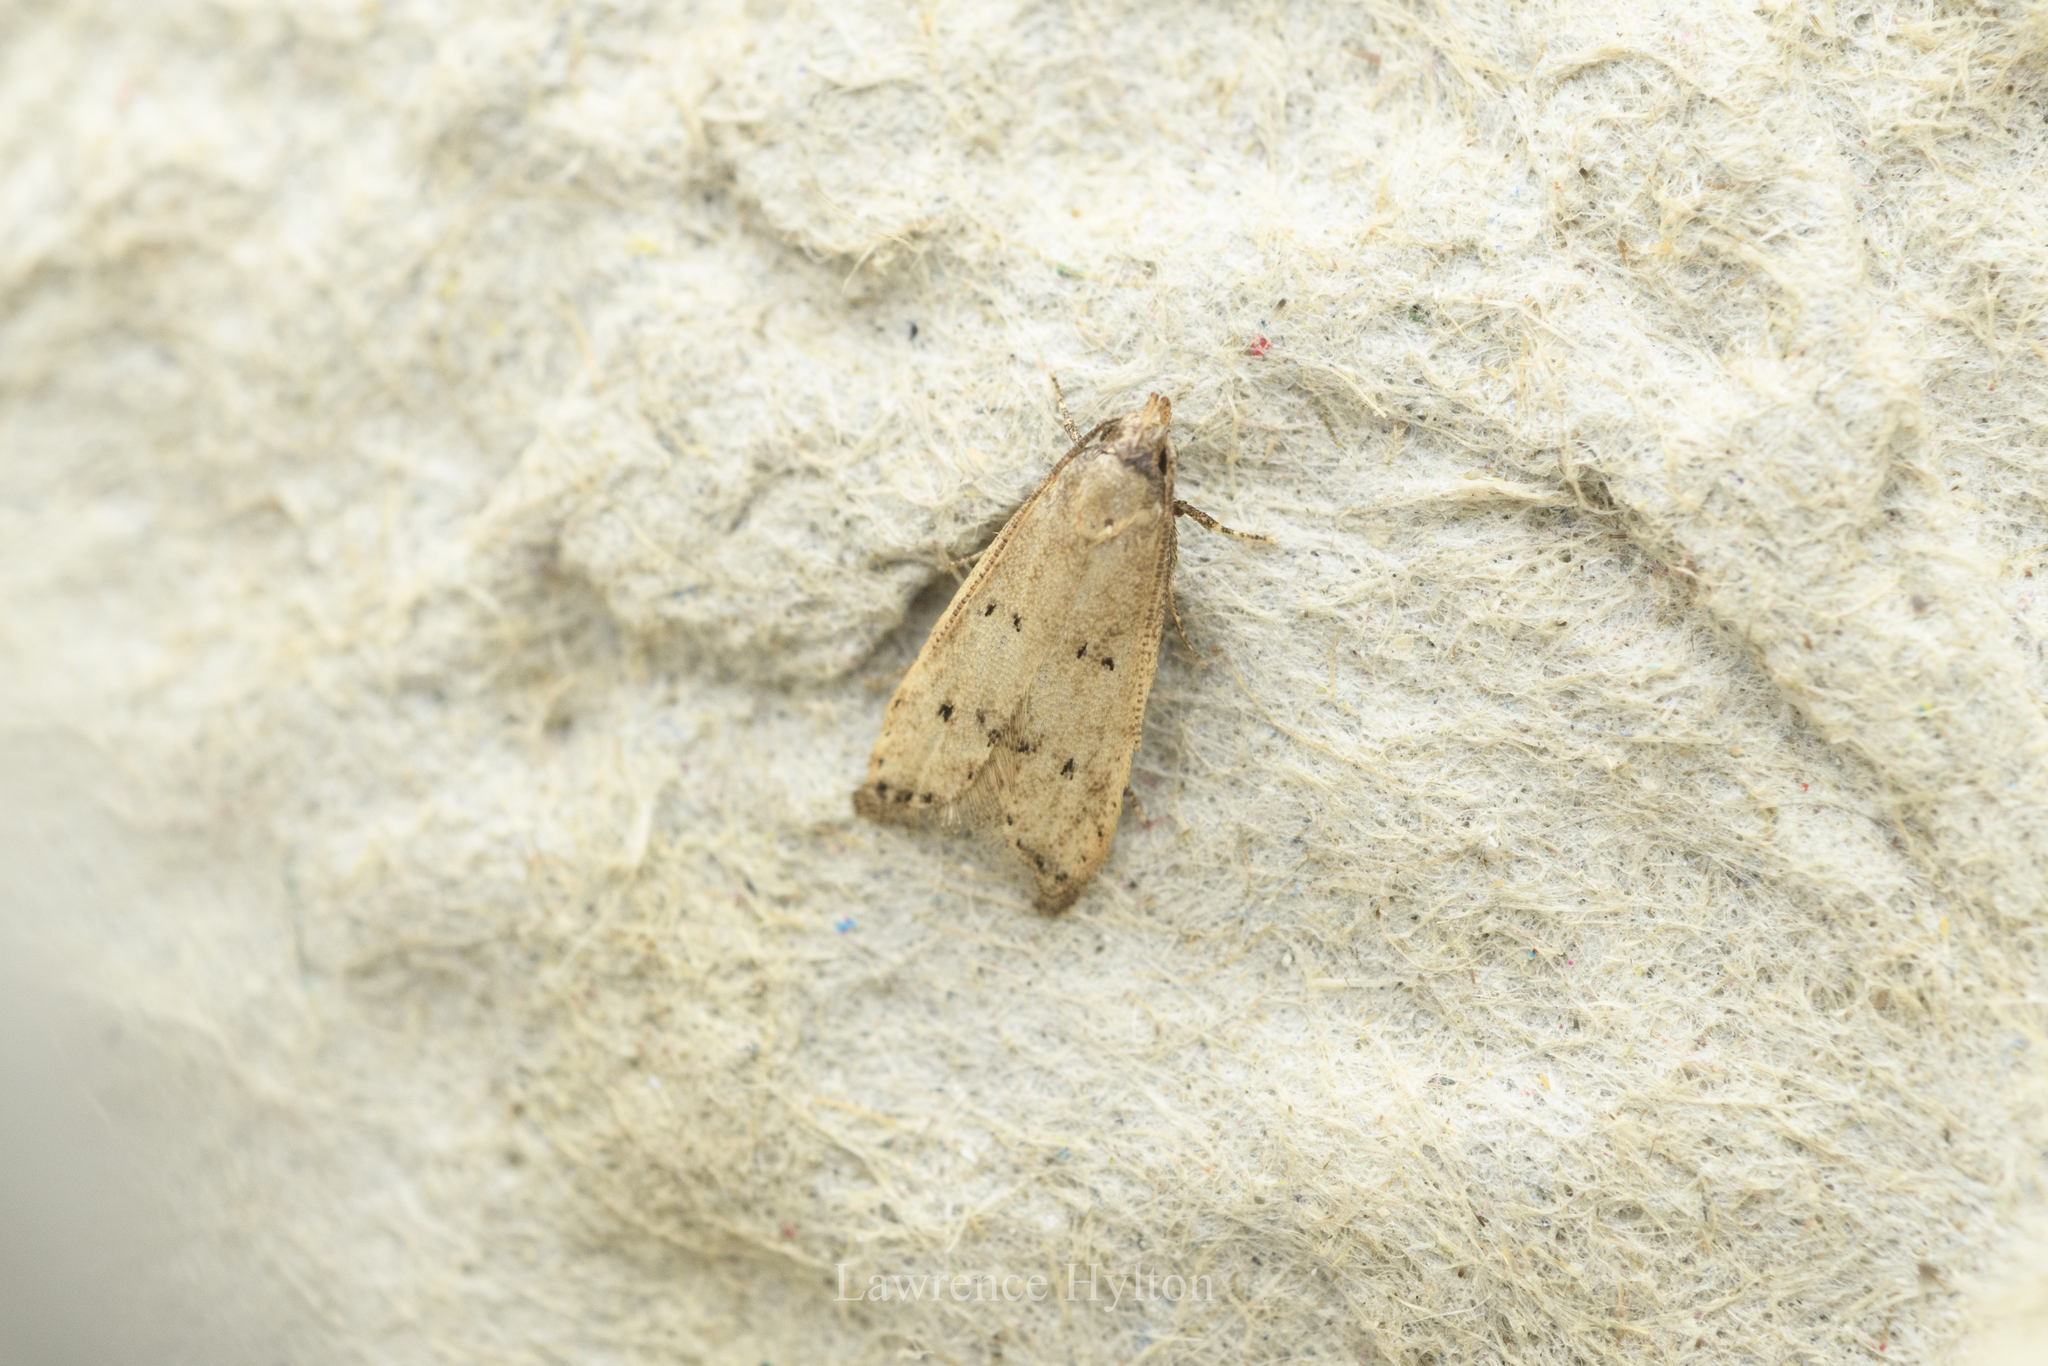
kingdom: Animalia
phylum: Arthropoda
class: Insecta
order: Lepidoptera
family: Lecithoceridae
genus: Lecitholaxa
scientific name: Lecitholaxa thiodora
